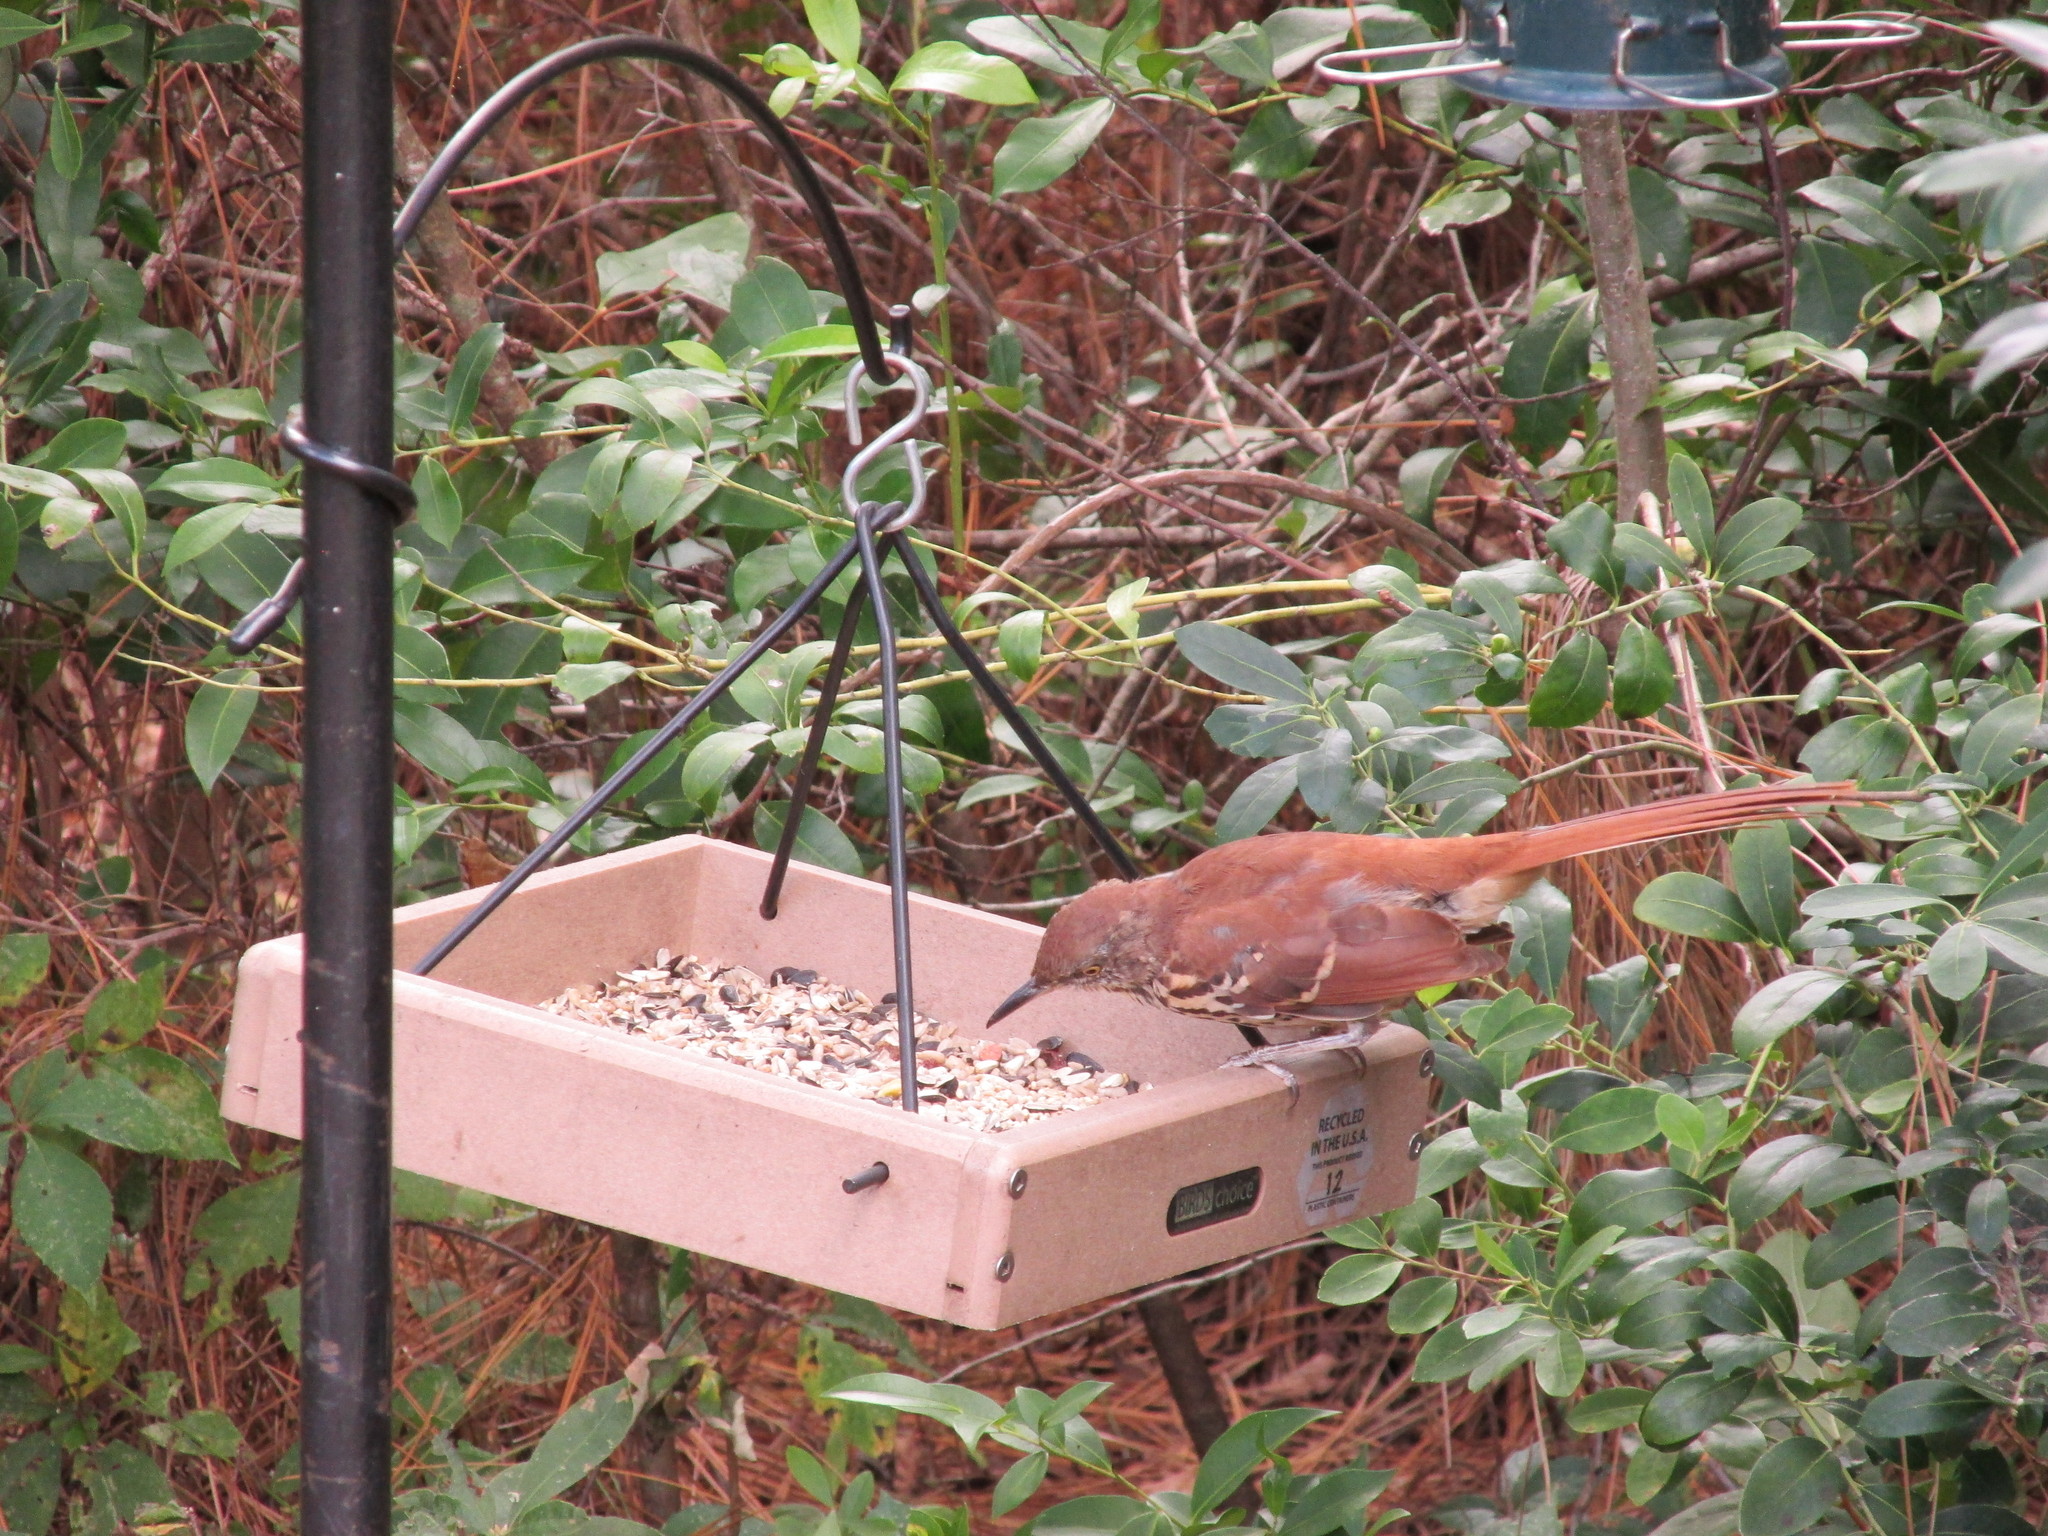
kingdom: Animalia
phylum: Chordata
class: Aves
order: Passeriformes
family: Mimidae
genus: Toxostoma
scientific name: Toxostoma rufum
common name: Brown thrasher
